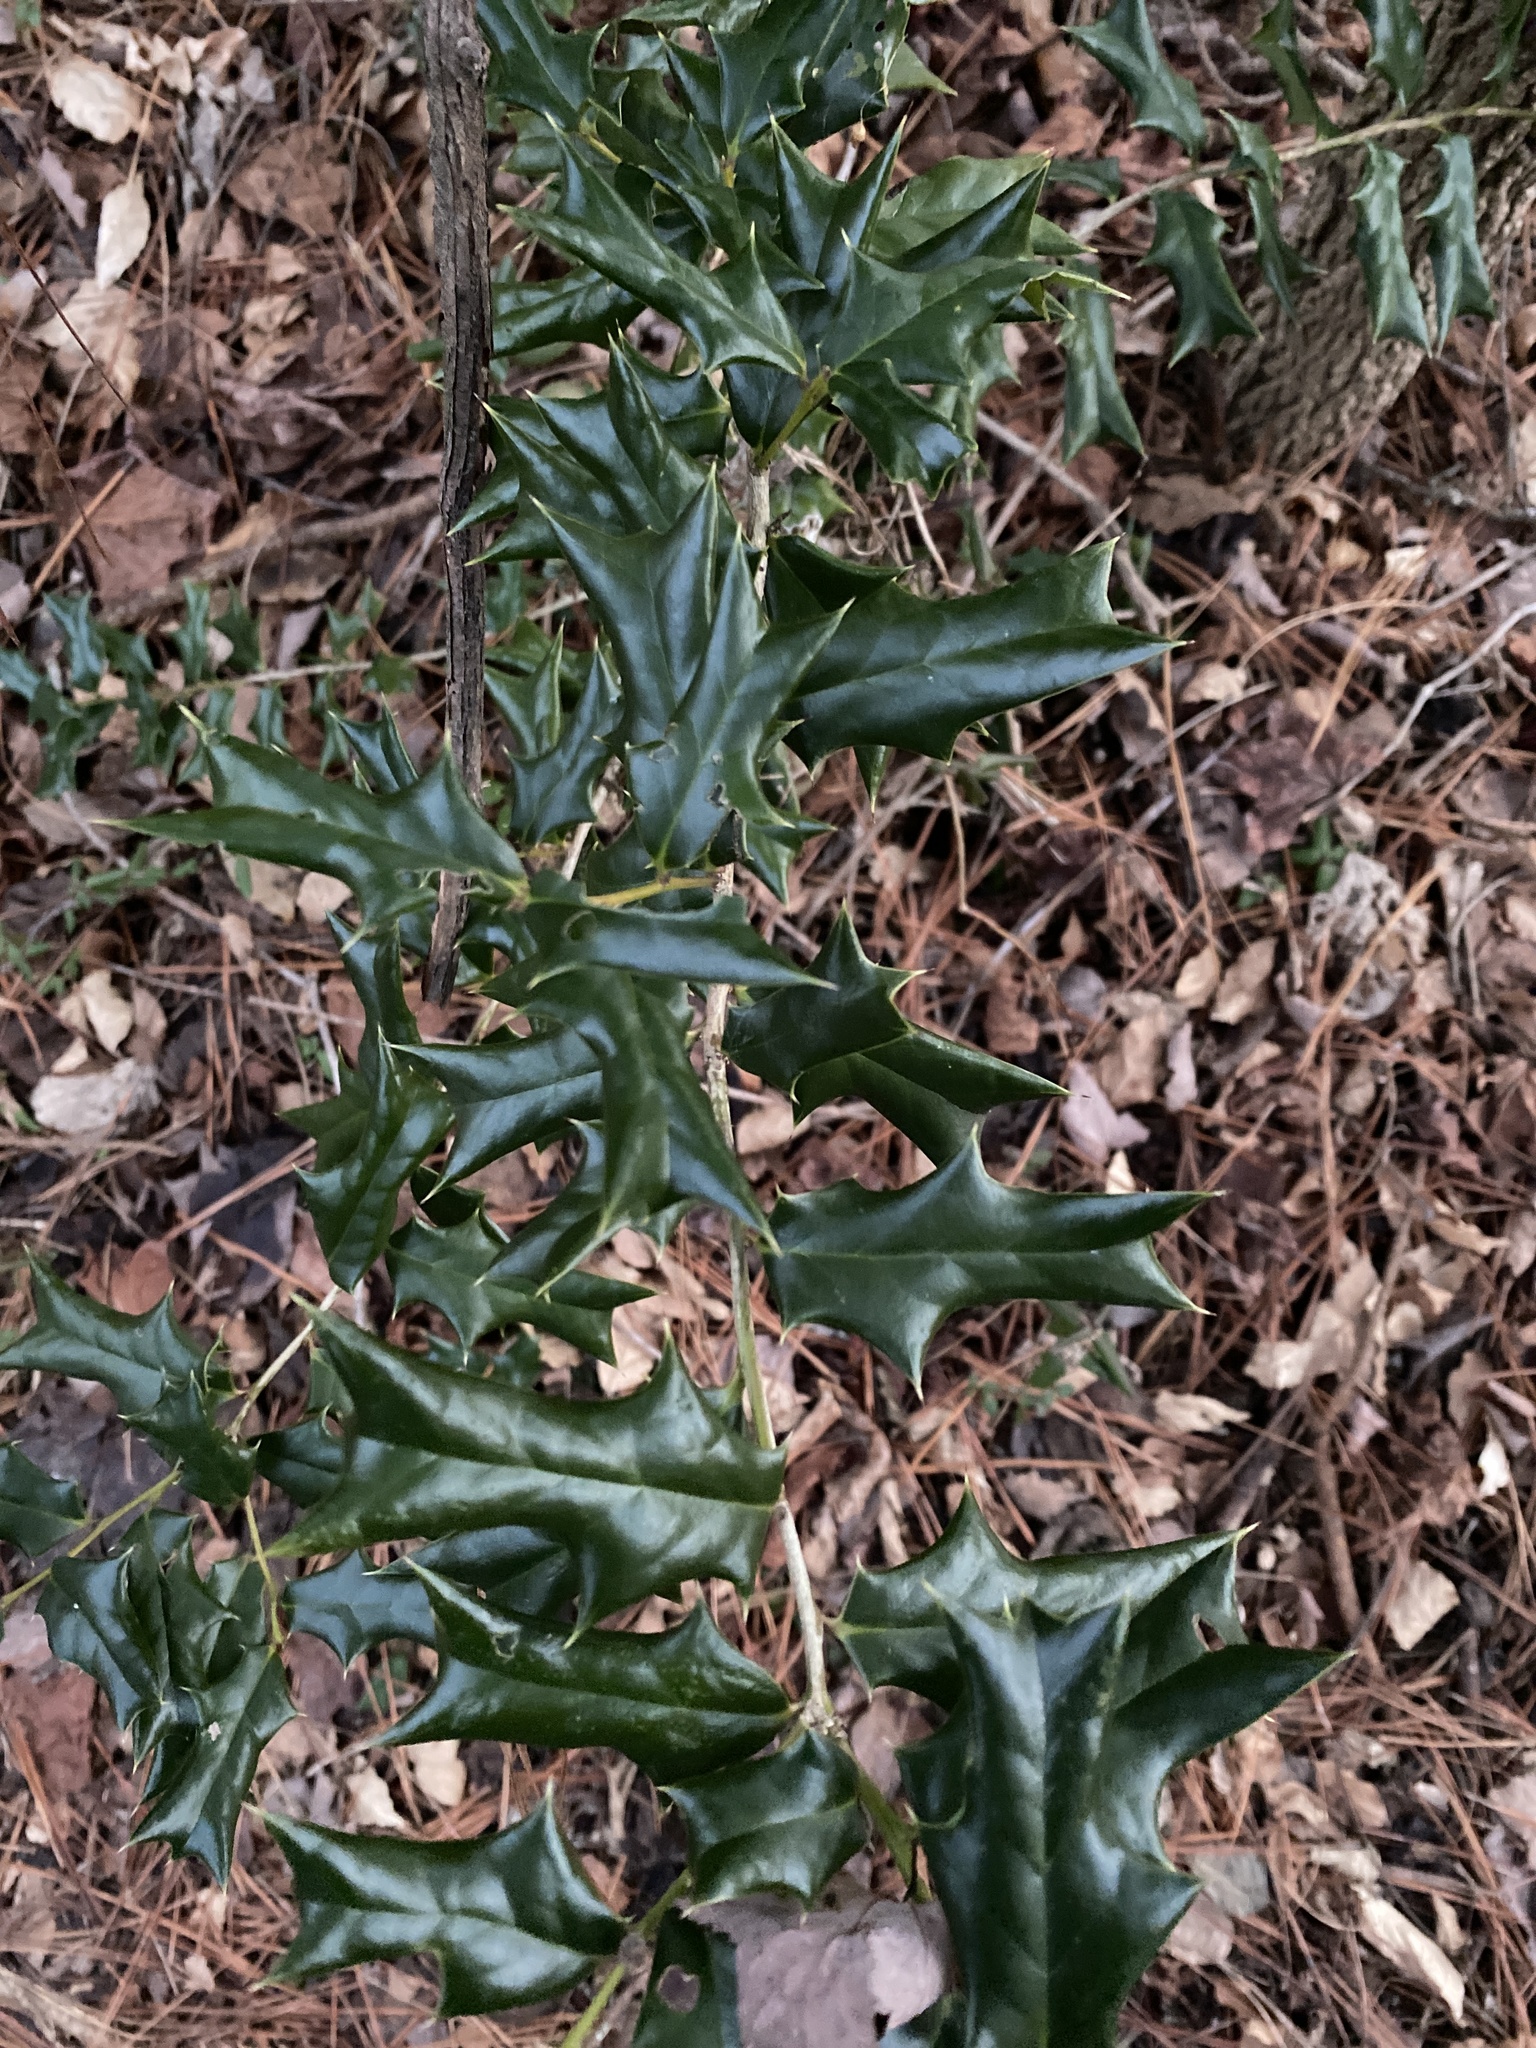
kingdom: Plantae
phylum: Tracheophyta
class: Magnoliopsida
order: Aquifoliales
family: Aquifoliaceae
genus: Ilex
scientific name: Ilex cornuta
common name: Chinese holly
